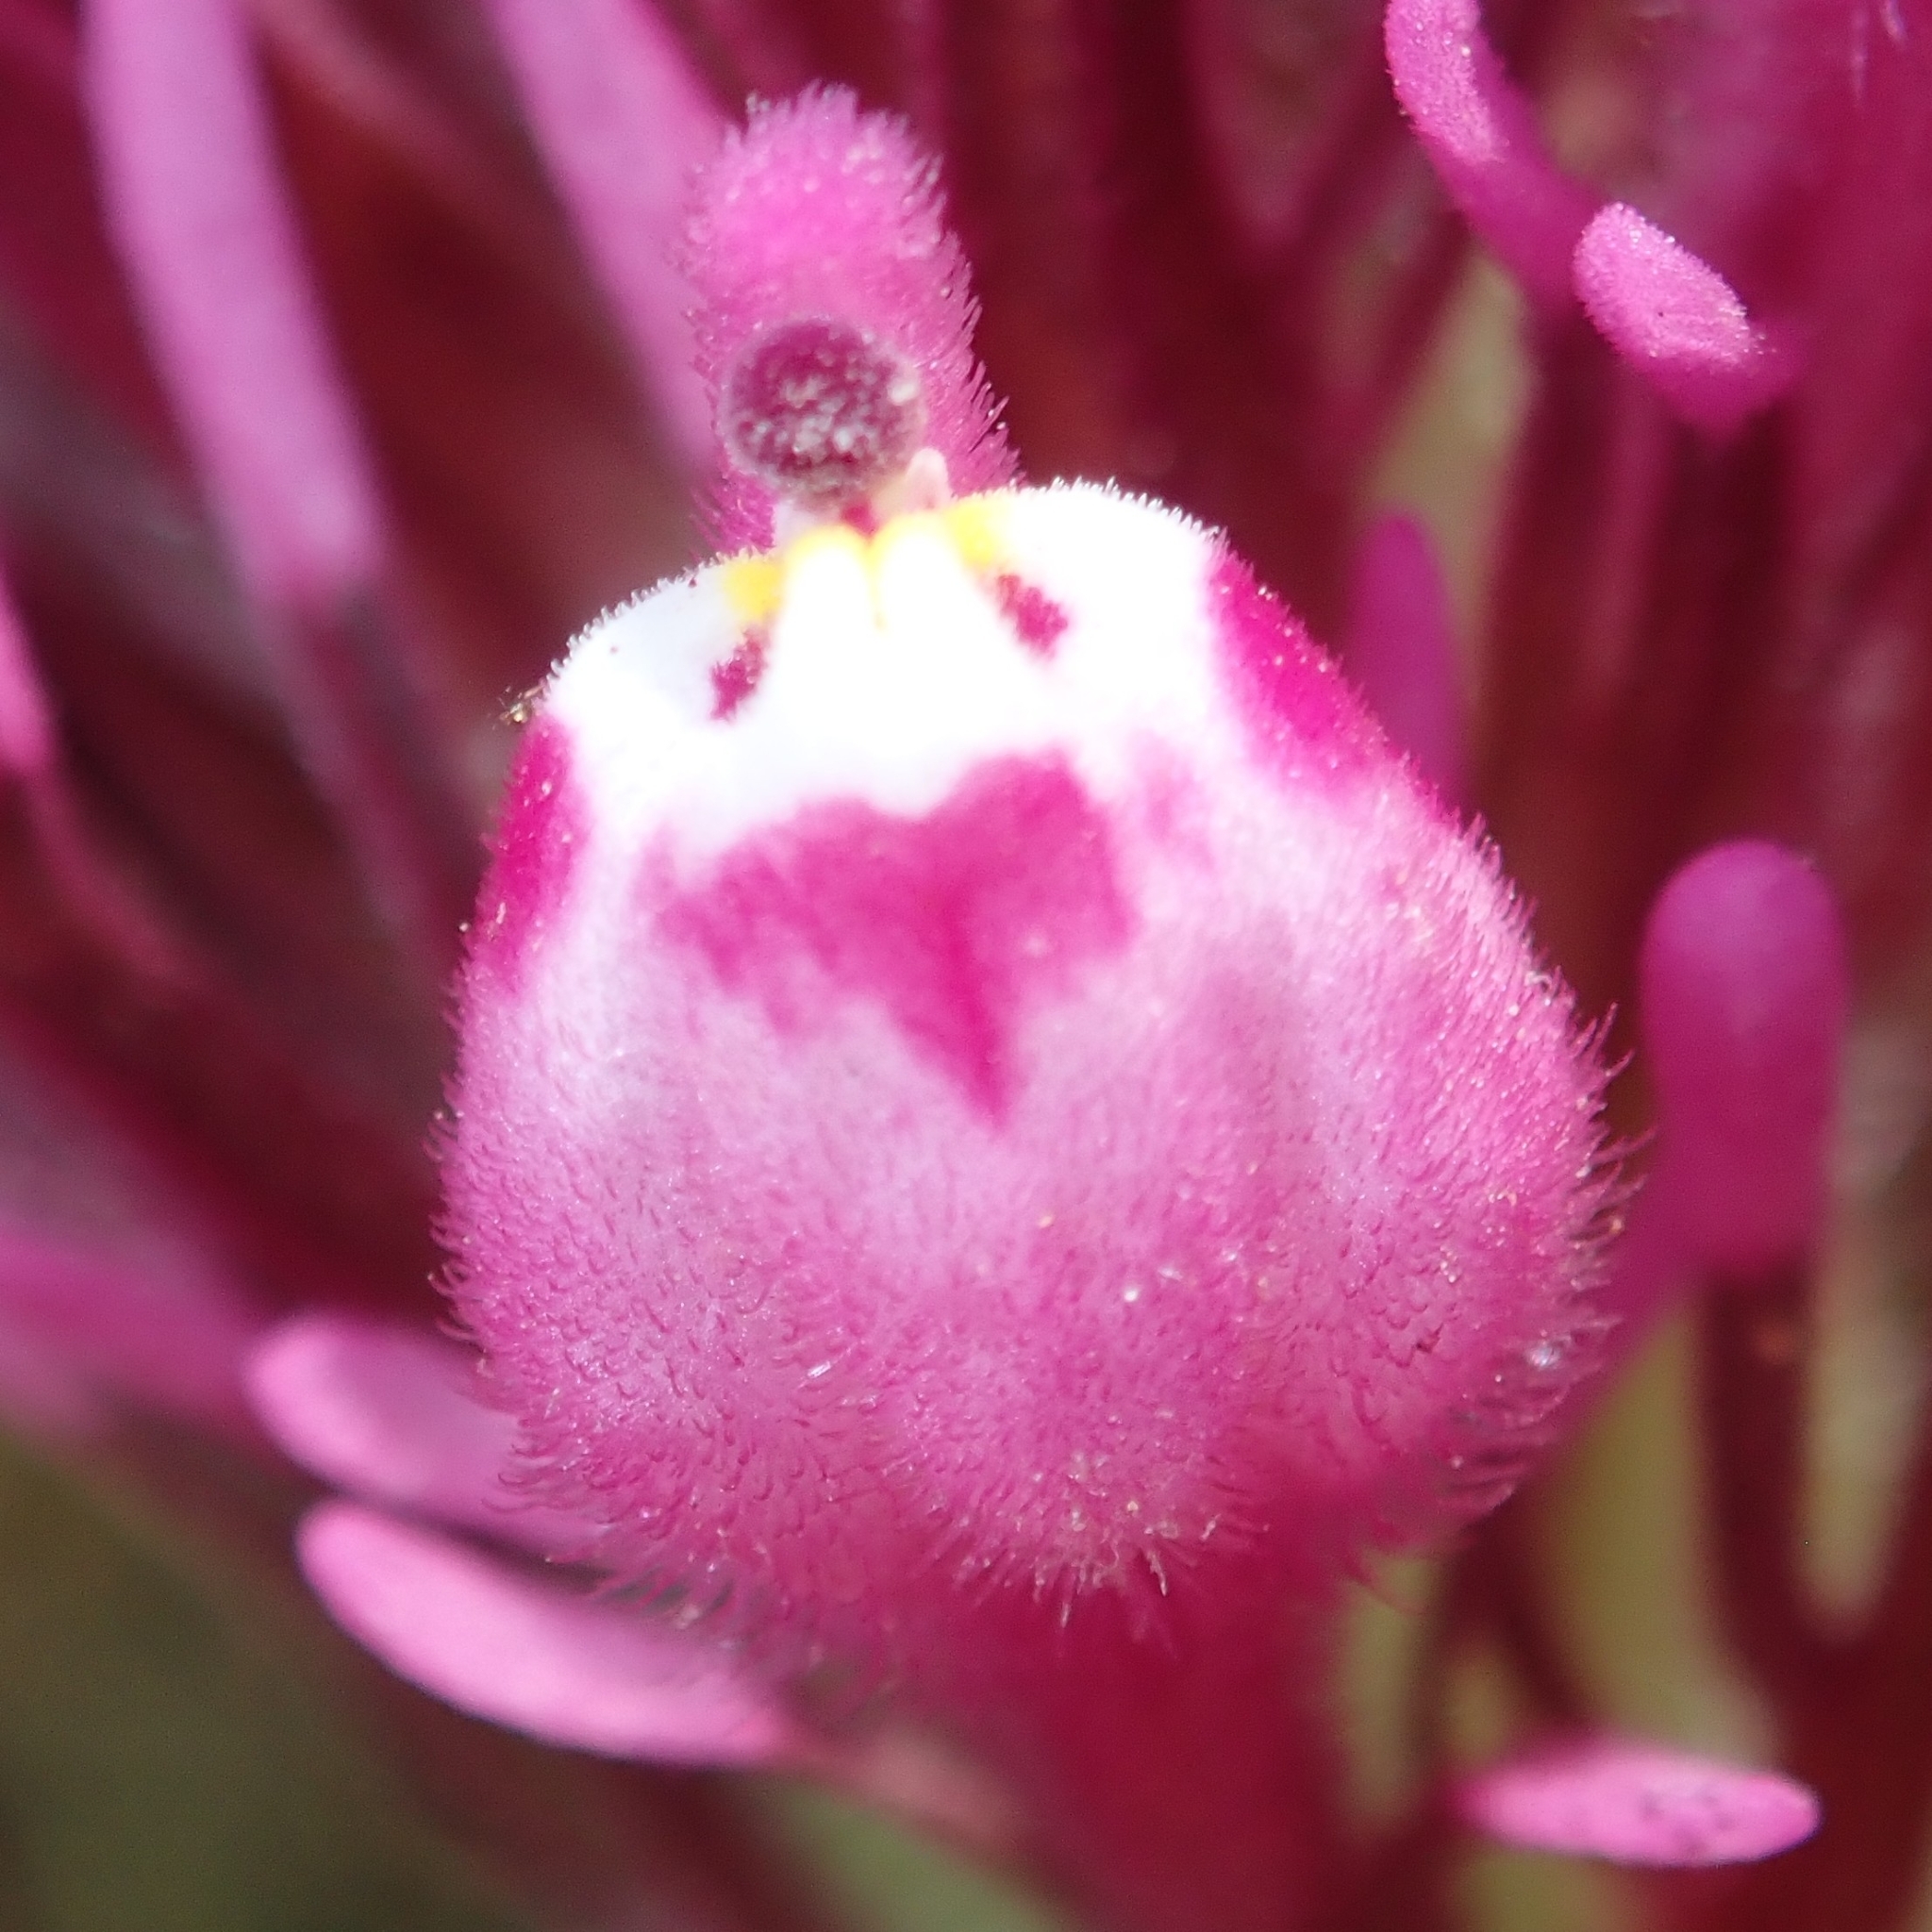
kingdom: Plantae
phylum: Tracheophyta
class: Magnoliopsida
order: Lamiales
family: Orobanchaceae
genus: Castilleja
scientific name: Castilleja exserta
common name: Purple owl-clover
